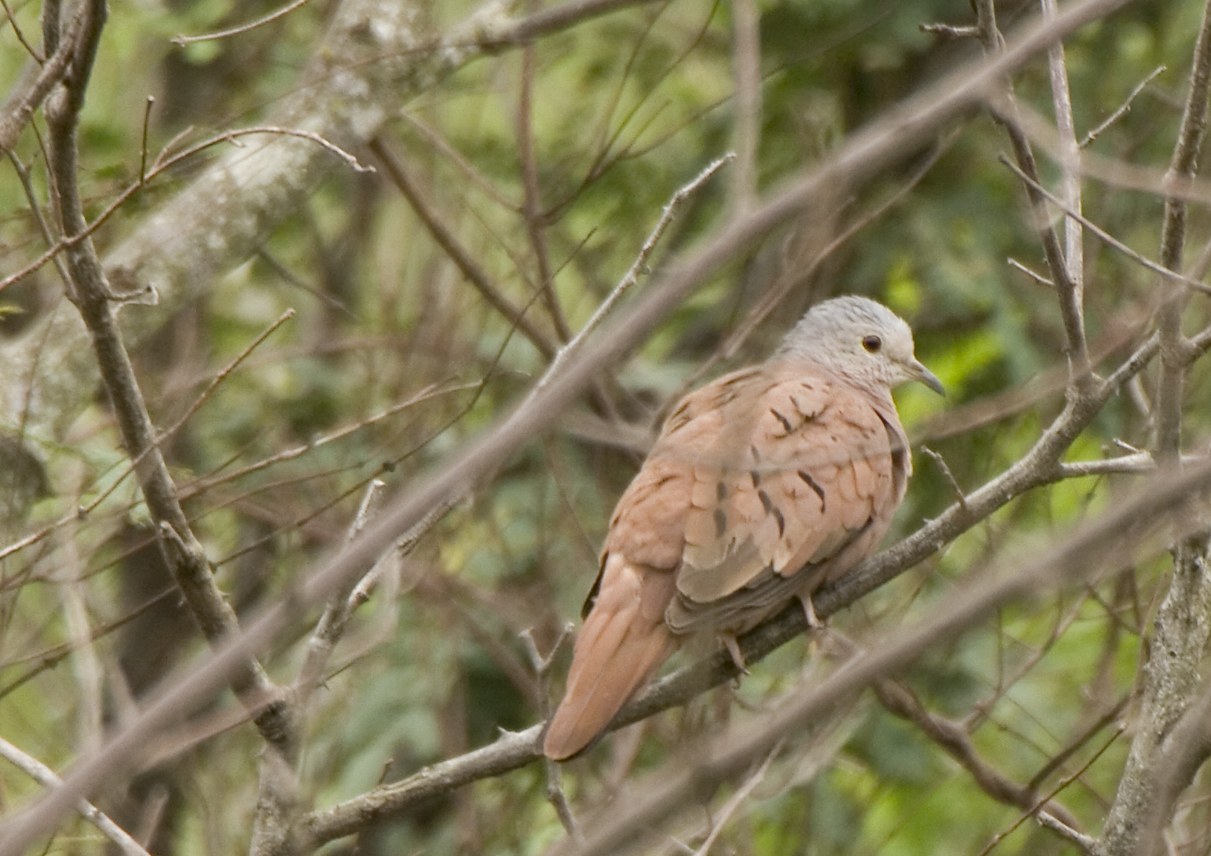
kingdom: Animalia
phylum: Chordata
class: Aves
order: Columbiformes
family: Columbidae
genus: Columbina
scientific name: Columbina talpacoti
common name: Ruddy ground dove
